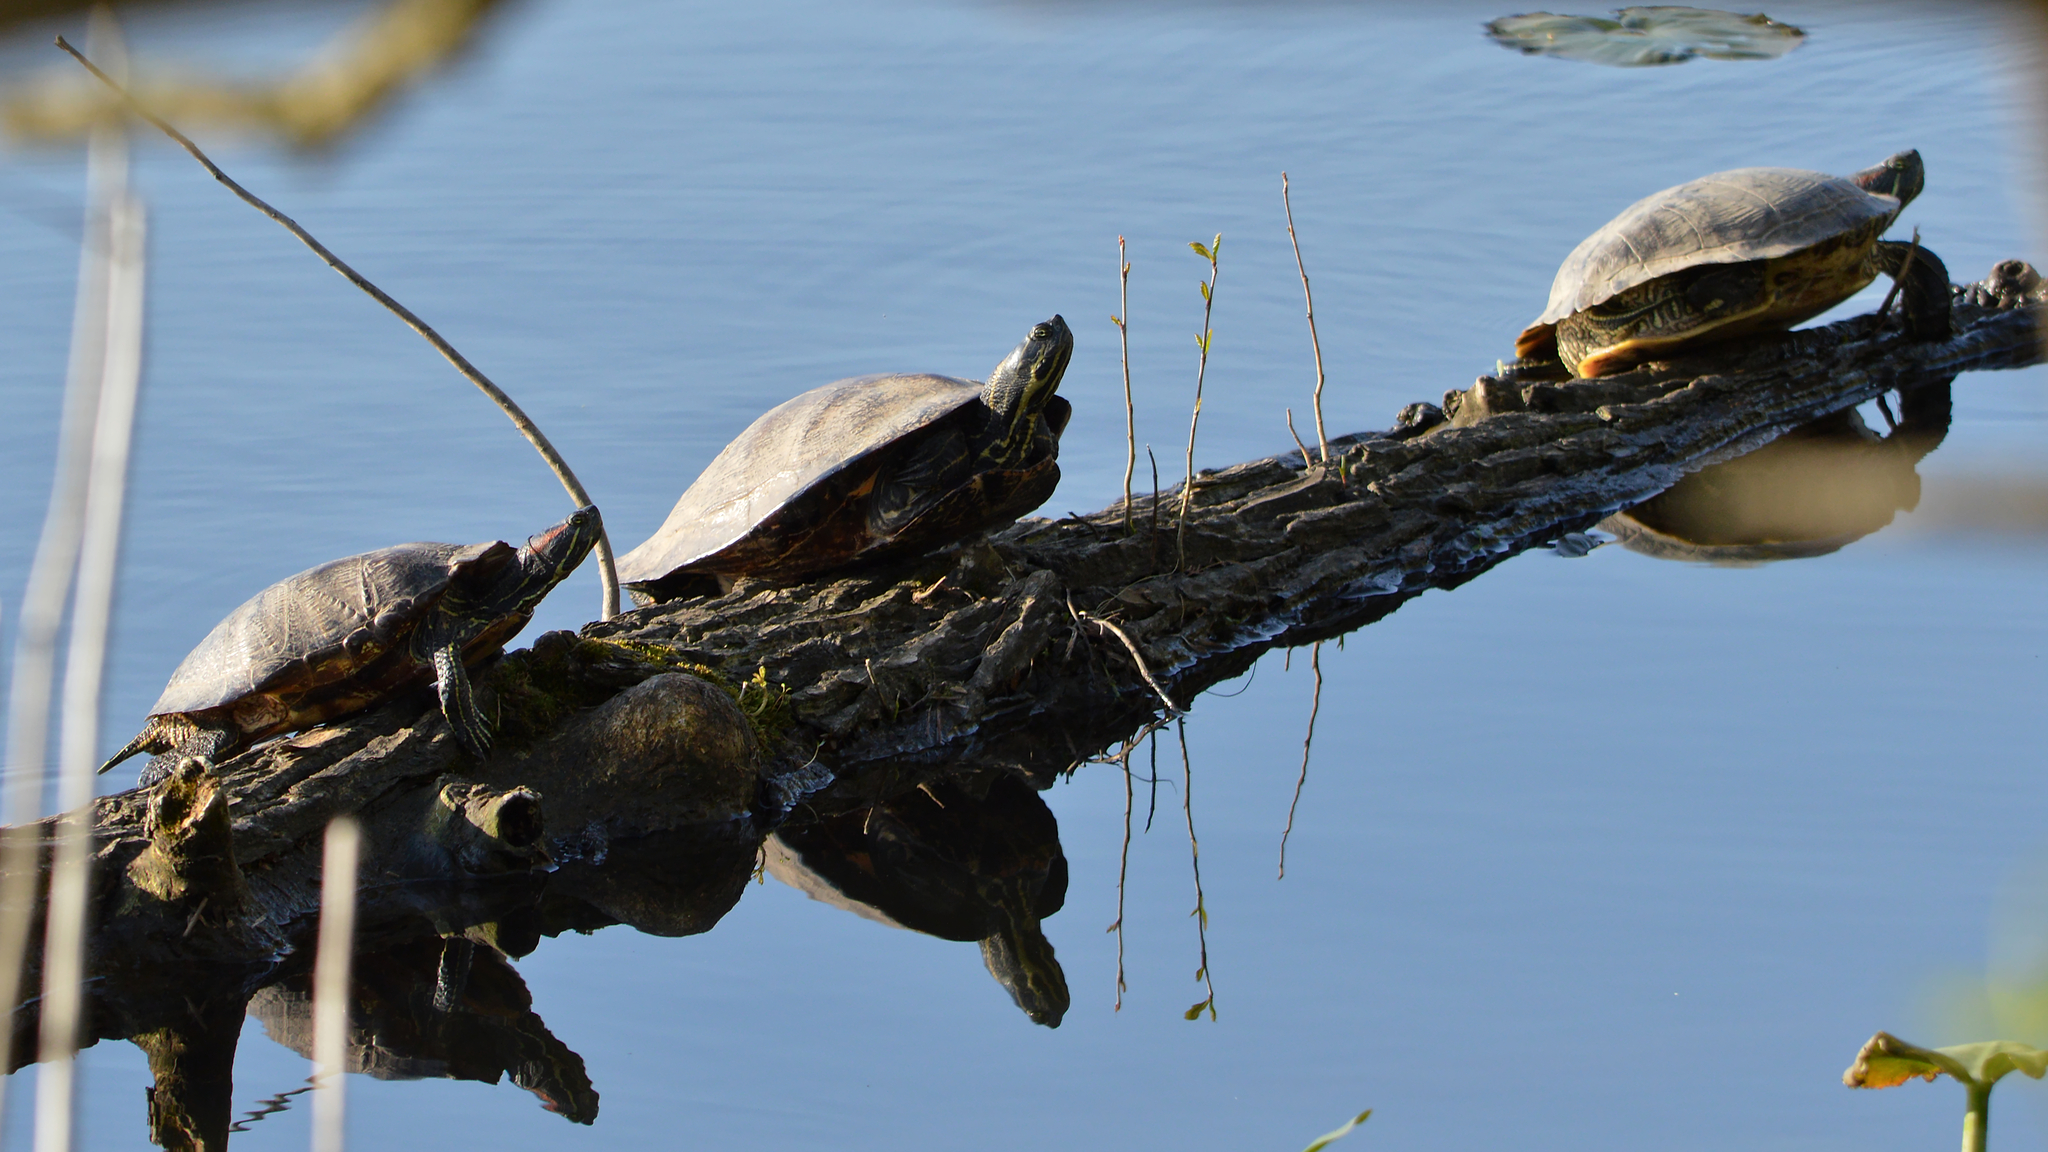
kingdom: Animalia
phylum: Chordata
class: Testudines
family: Emydidae
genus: Trachemys
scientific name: Trachemys scripta
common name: Slider
